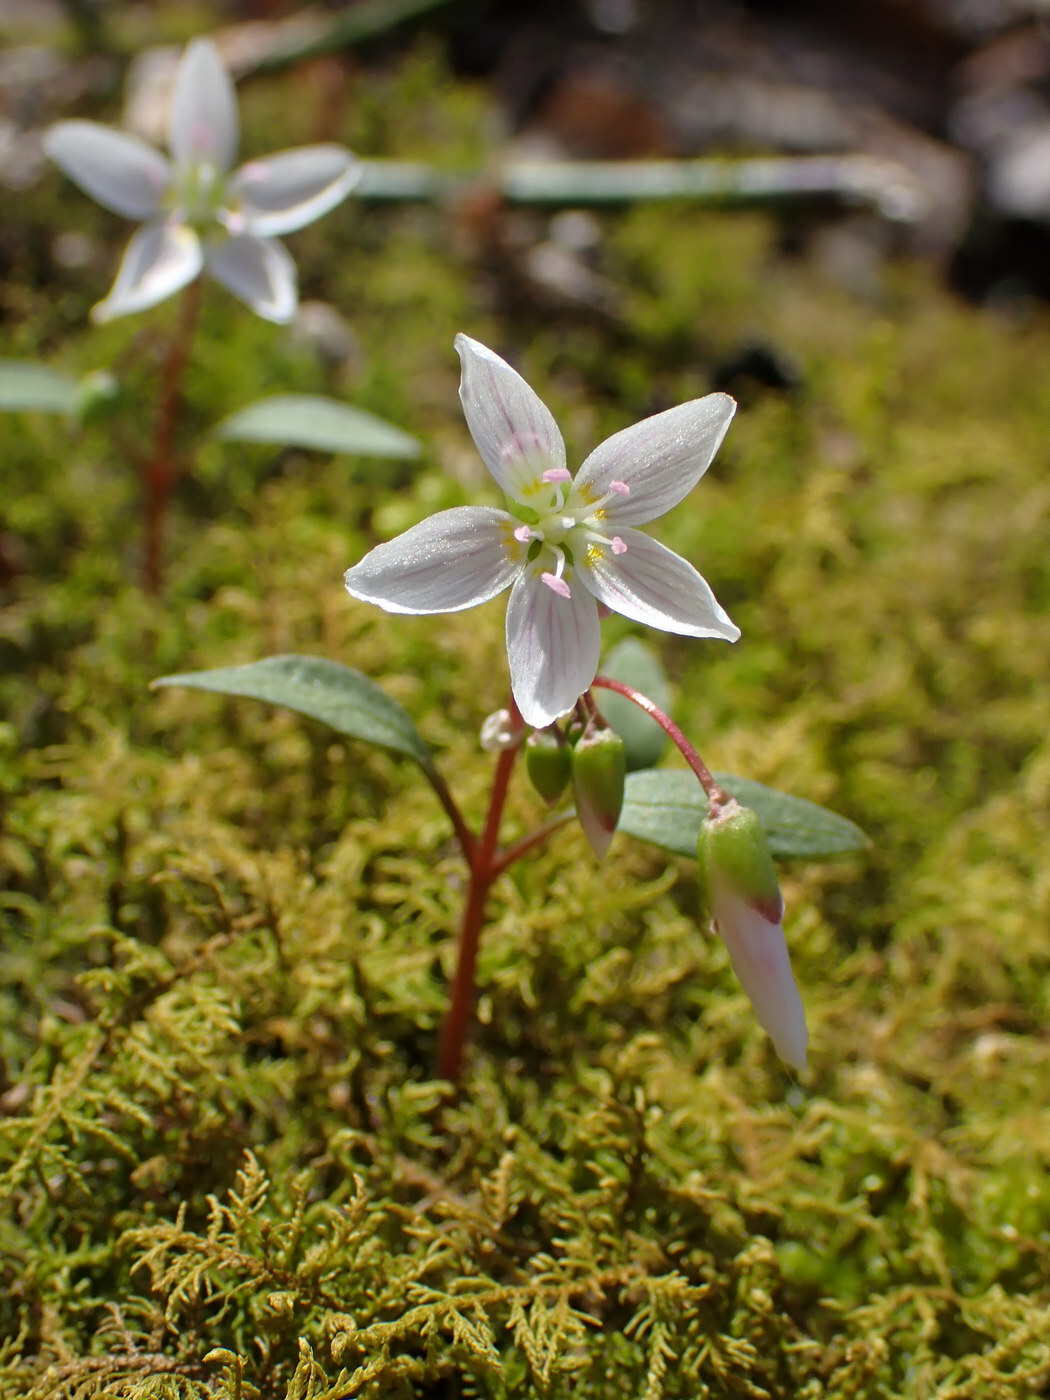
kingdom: Plantae
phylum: Tracheophyta
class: Magnoliopsida
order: Caryophyllales
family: Montiaceae
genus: Claytonia
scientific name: Claytonia caroliniana
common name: Carolina spring beauty
